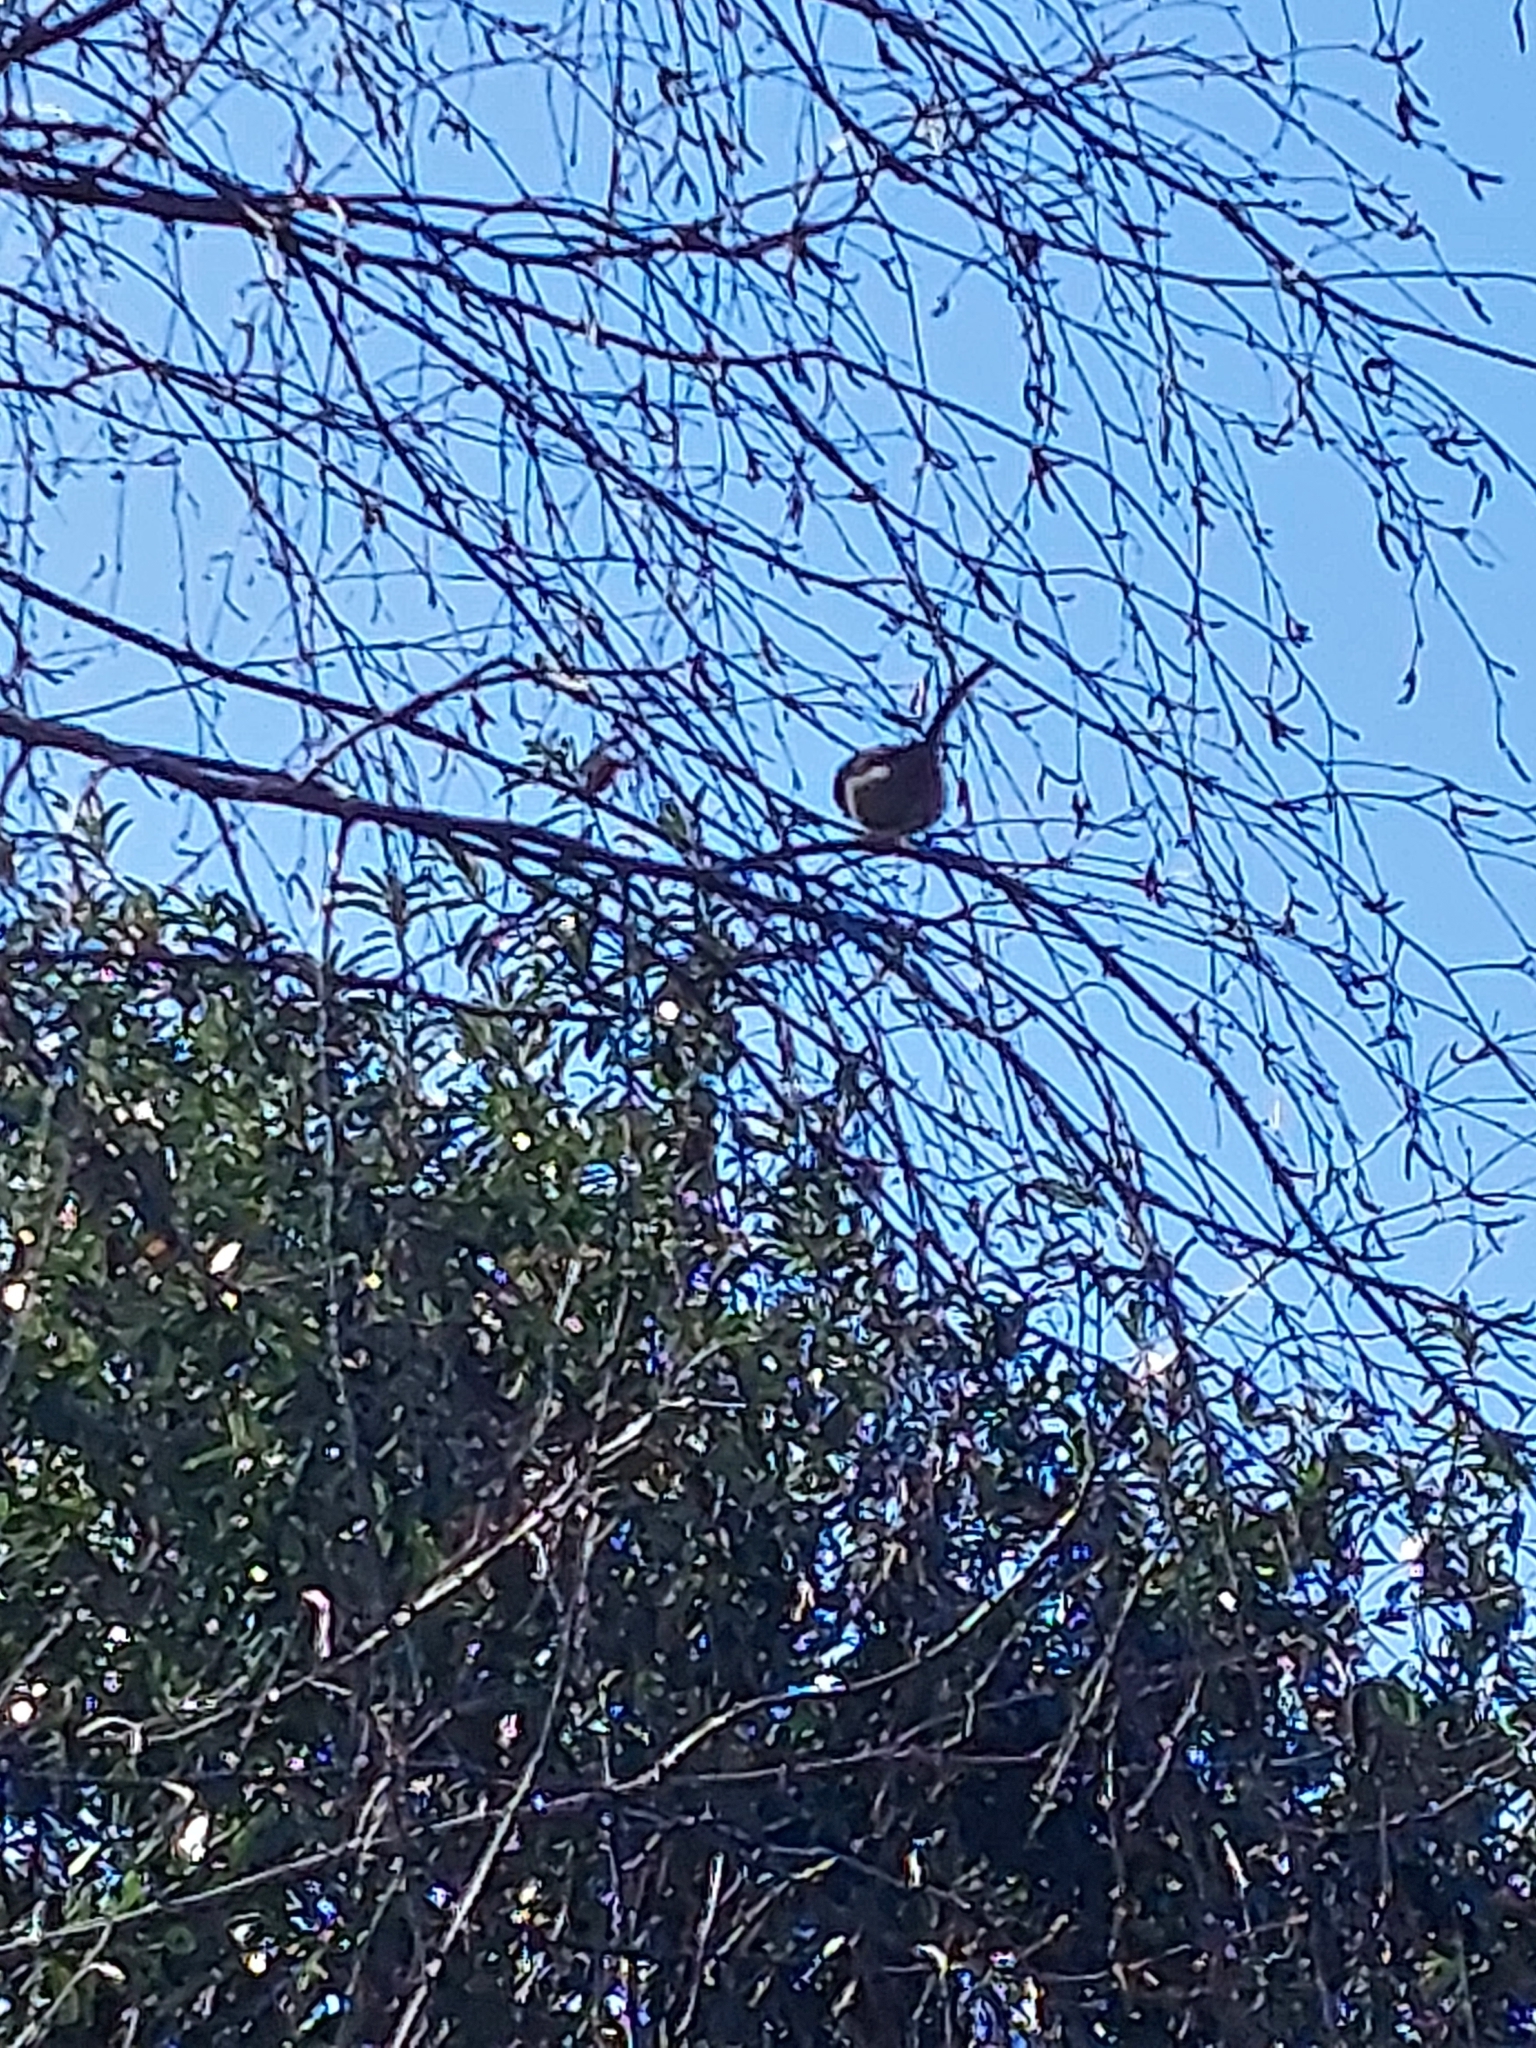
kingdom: Animalia
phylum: Chordata
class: Aves
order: Passeriformes
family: Aegithalidae
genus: Aegithalos
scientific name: Aegithalos caudatus
